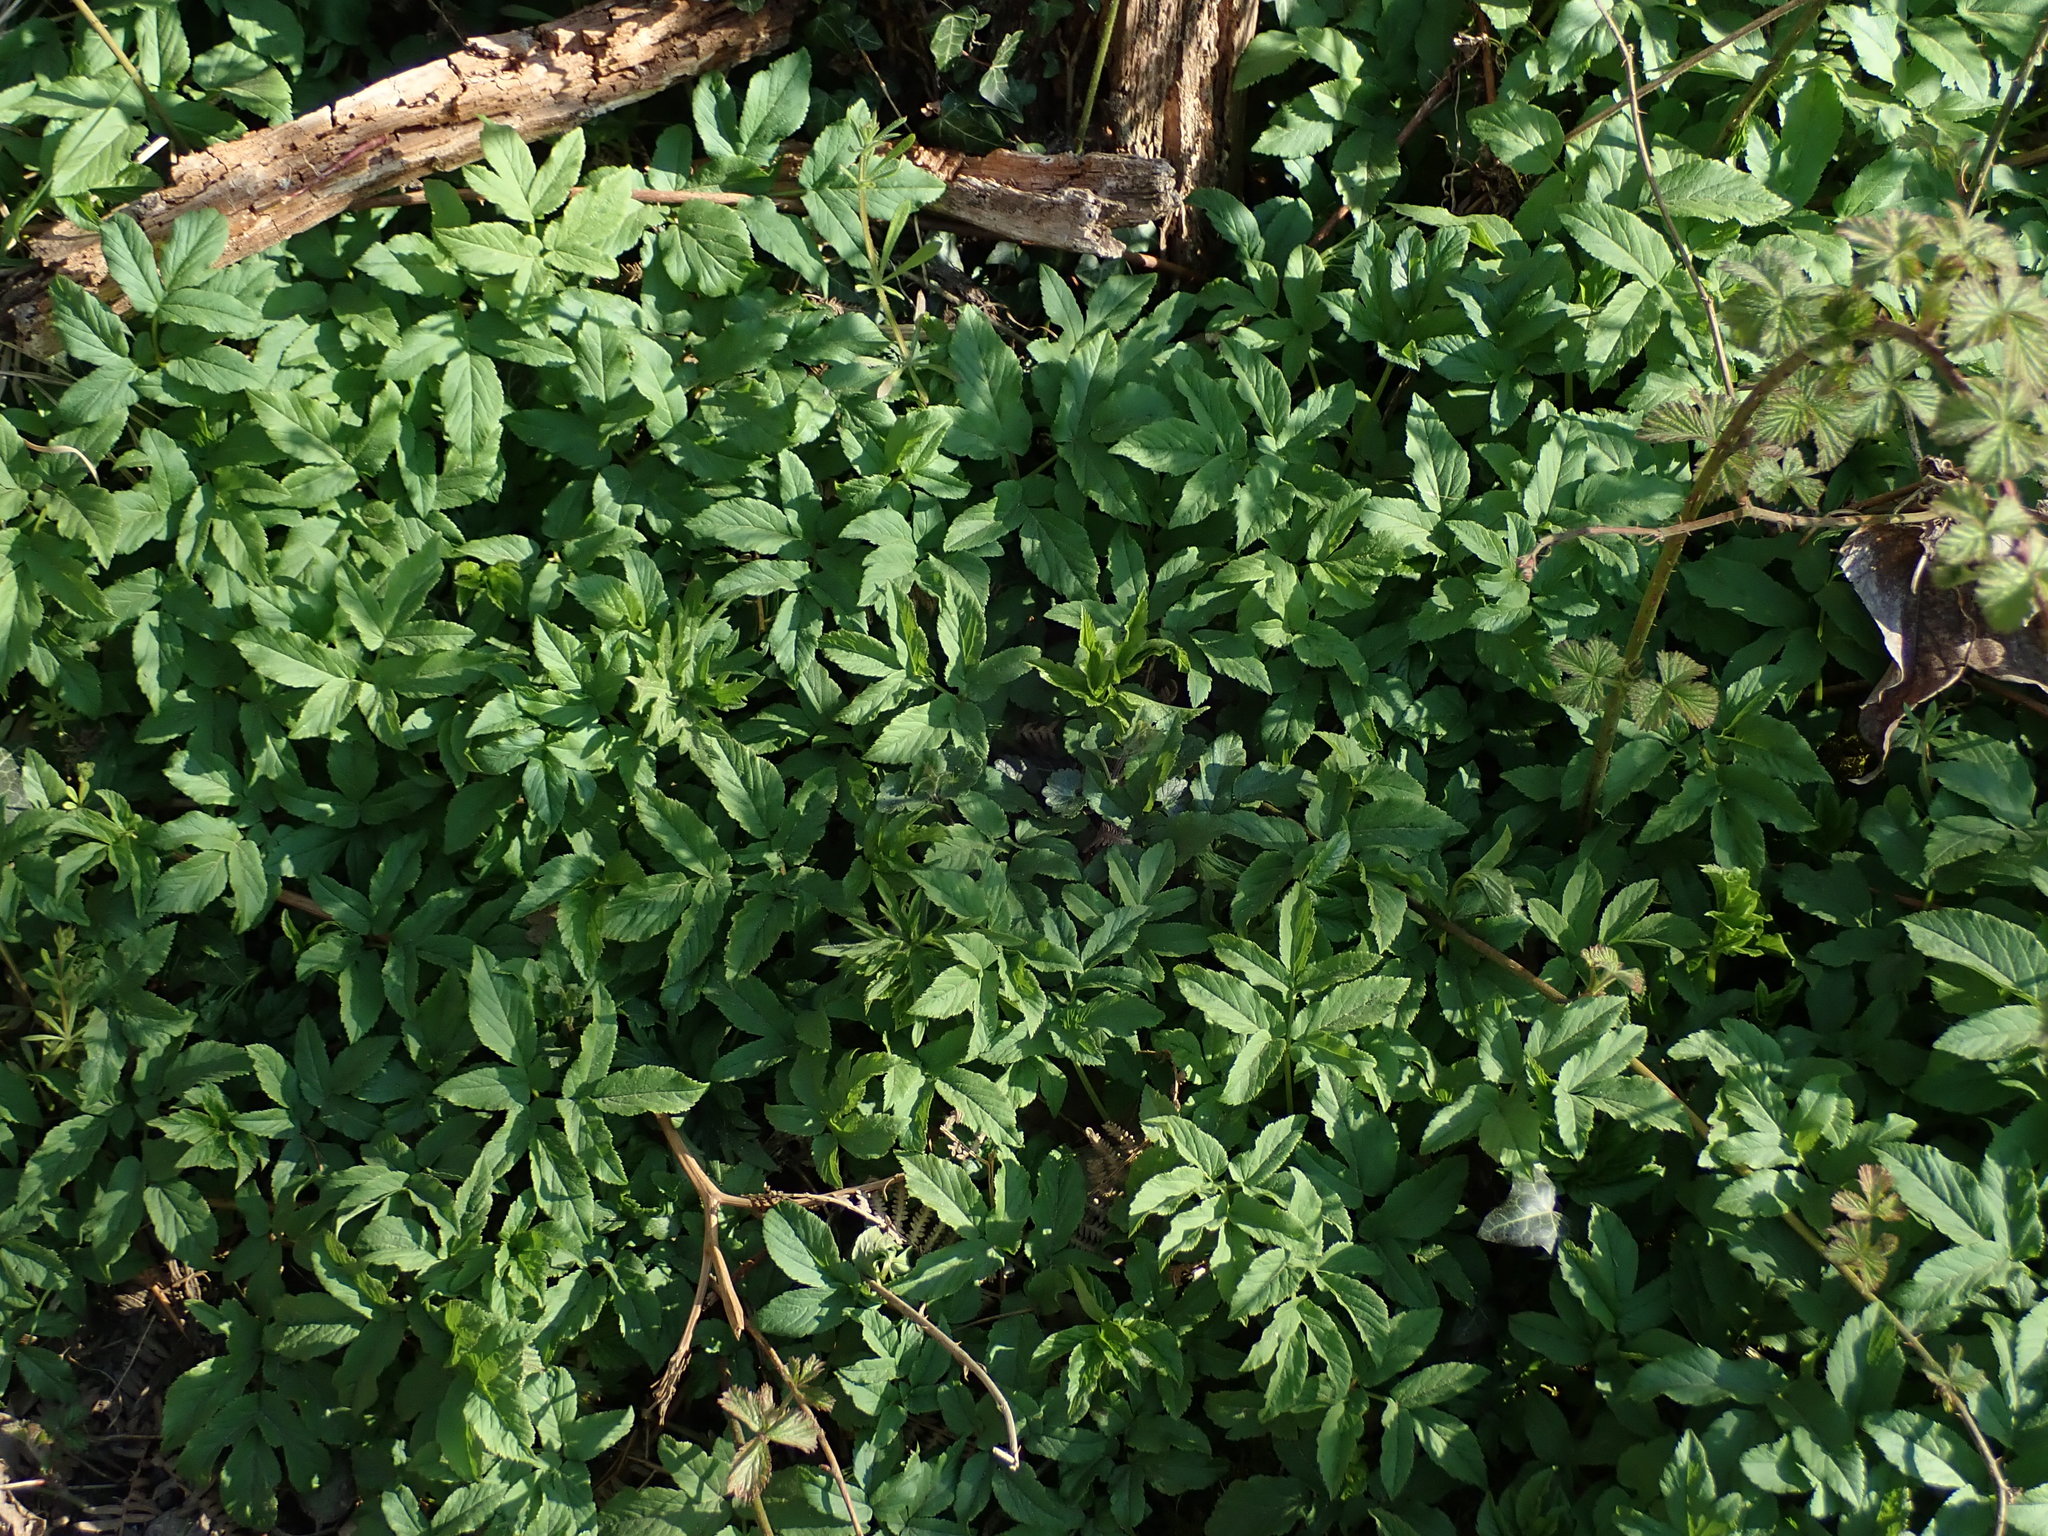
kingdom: Plantae
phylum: Tracheophyta
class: Magnoliopsida
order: Apiales
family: Apiaceae
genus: Aegopodium
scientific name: Aegopodium podagraria
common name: Ground-elder
